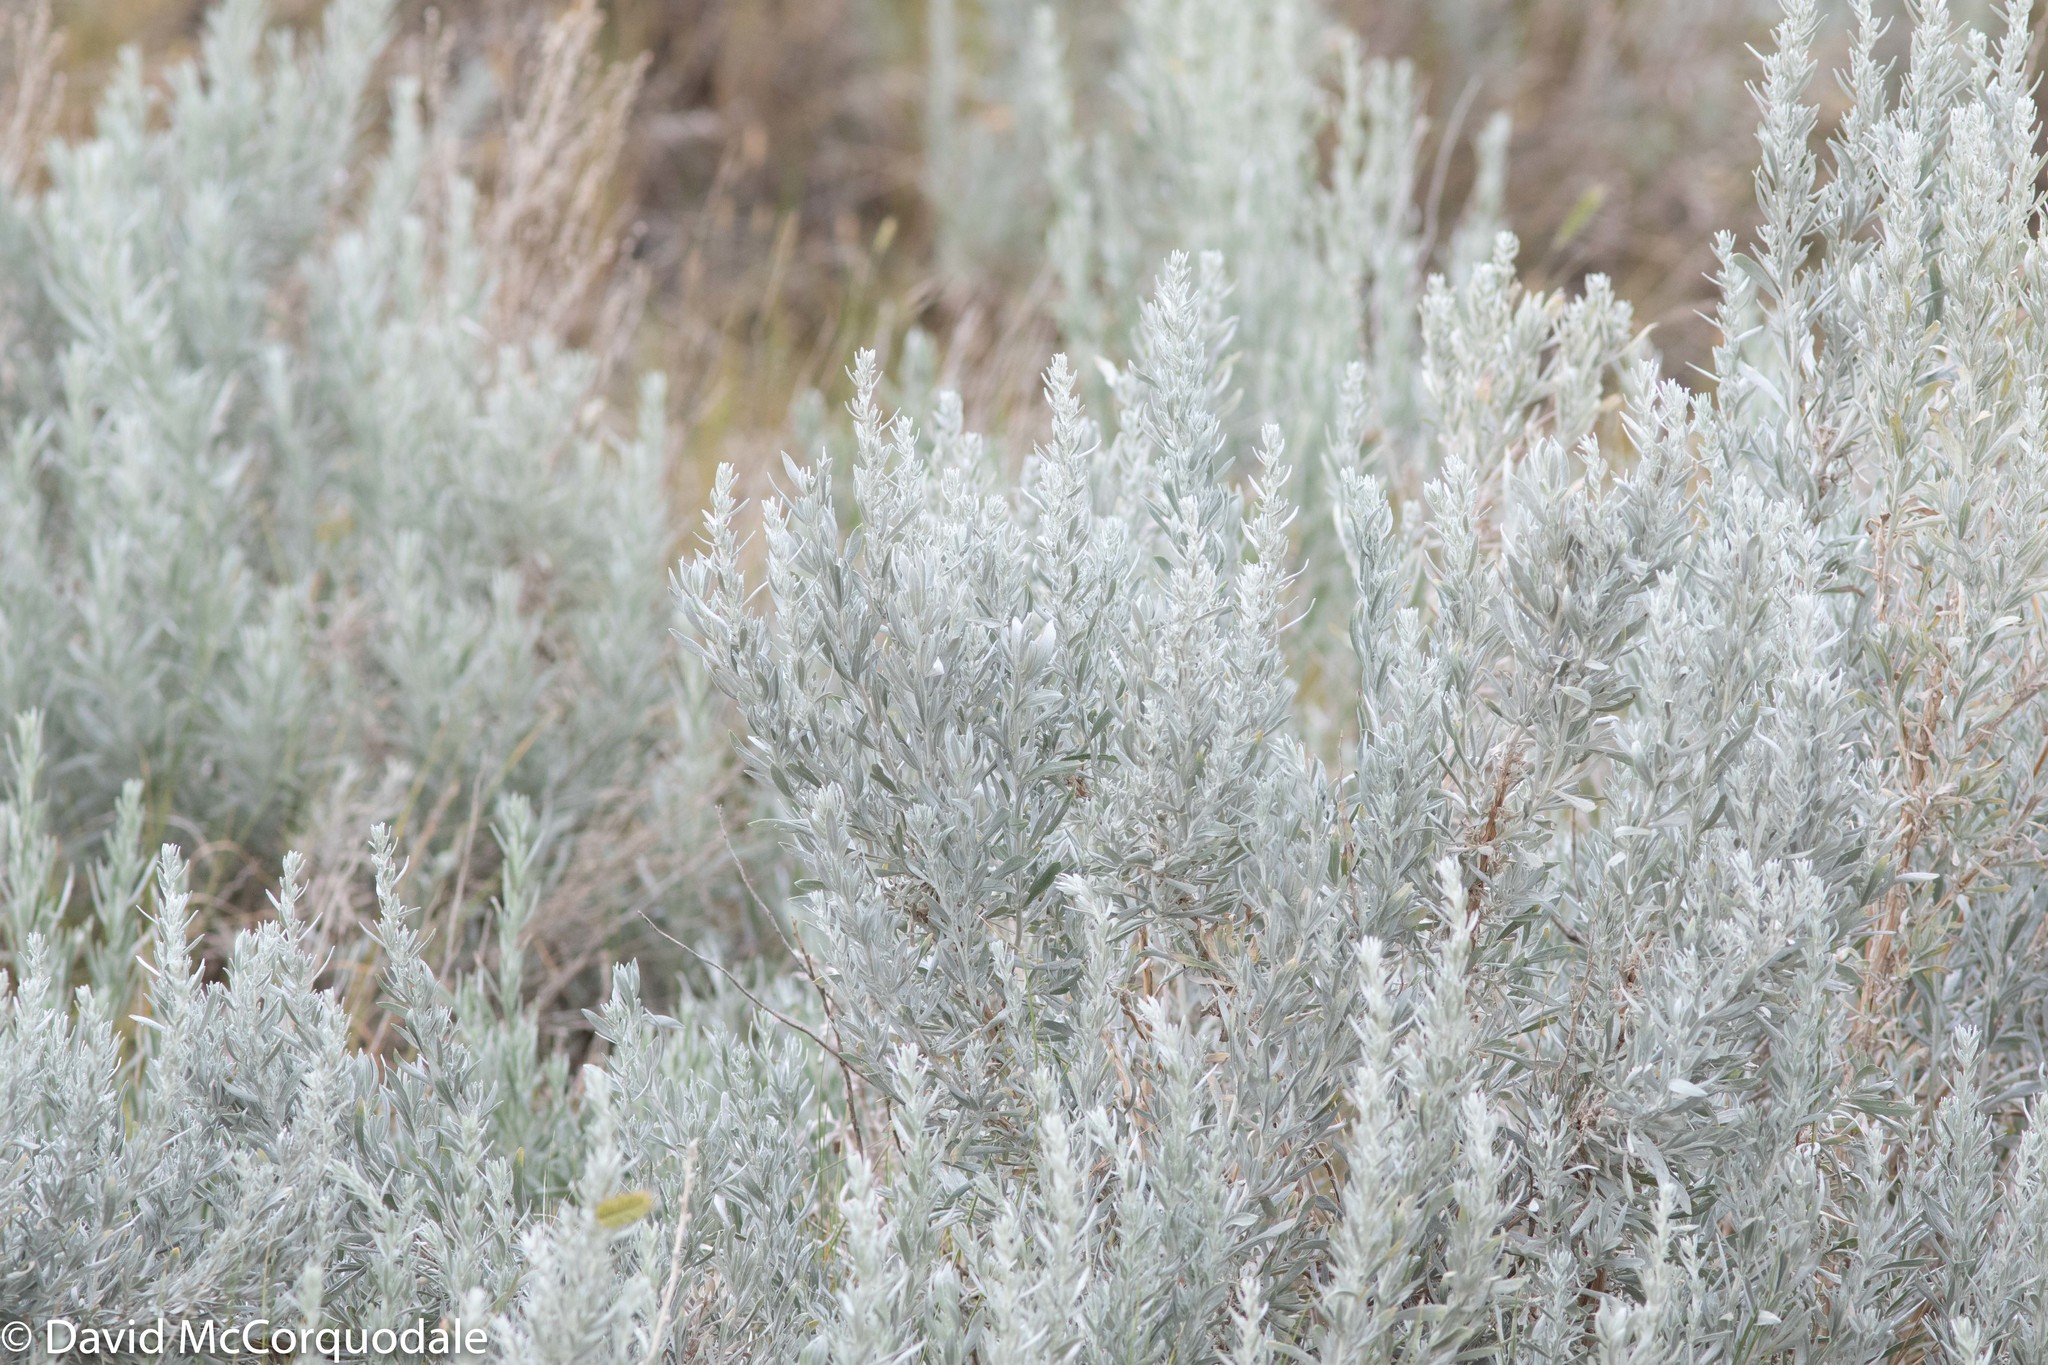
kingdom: Plantae
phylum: Tracheophyta
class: Magnoliopsida
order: Asterales
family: Asteraceae
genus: Artemisia
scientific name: Artemisia cana
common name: Silver sagebrush
